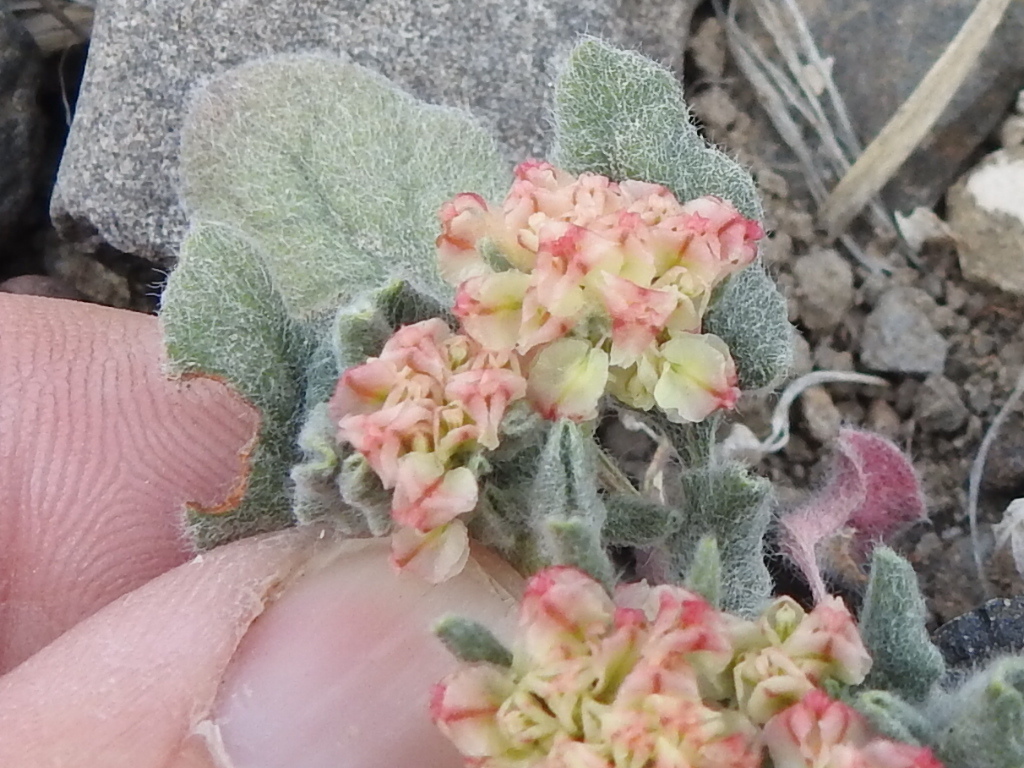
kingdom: Plantae
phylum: Tracheophyta
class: Magnoliopsida
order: Caryophyllales
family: Polygonaceae
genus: Eriogonum
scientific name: Eriogonum abertianum
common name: Abert's wild buckwheat
